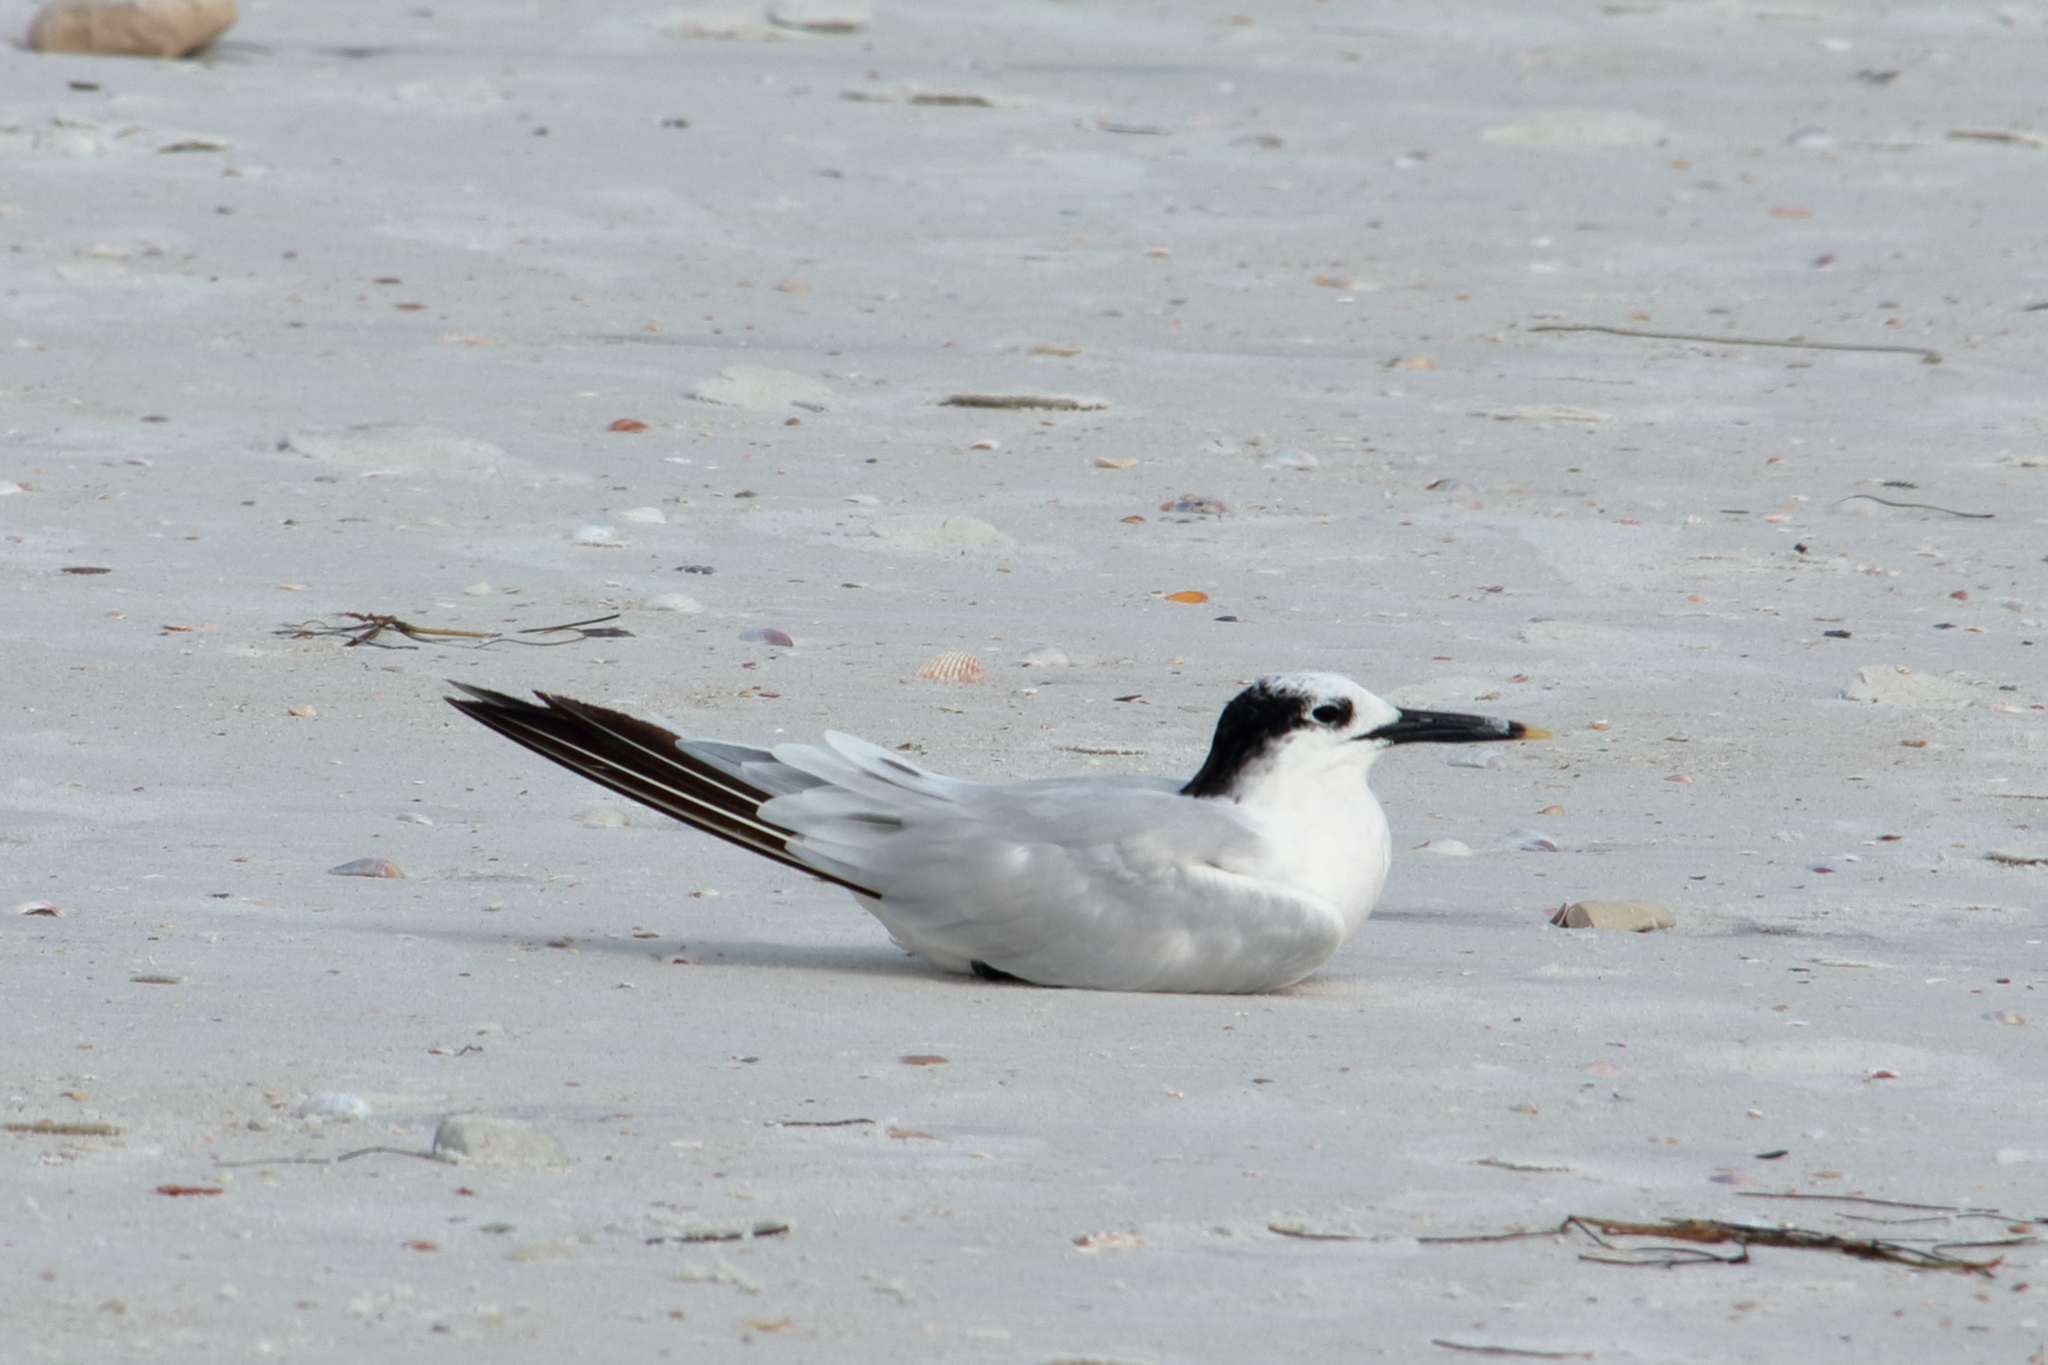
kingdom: Animalia
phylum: Chordata
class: Aves
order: Charadriiformes
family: Laridae
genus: Thalasseus
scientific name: Thalasseus sandvicensis
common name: Sandwich tern
